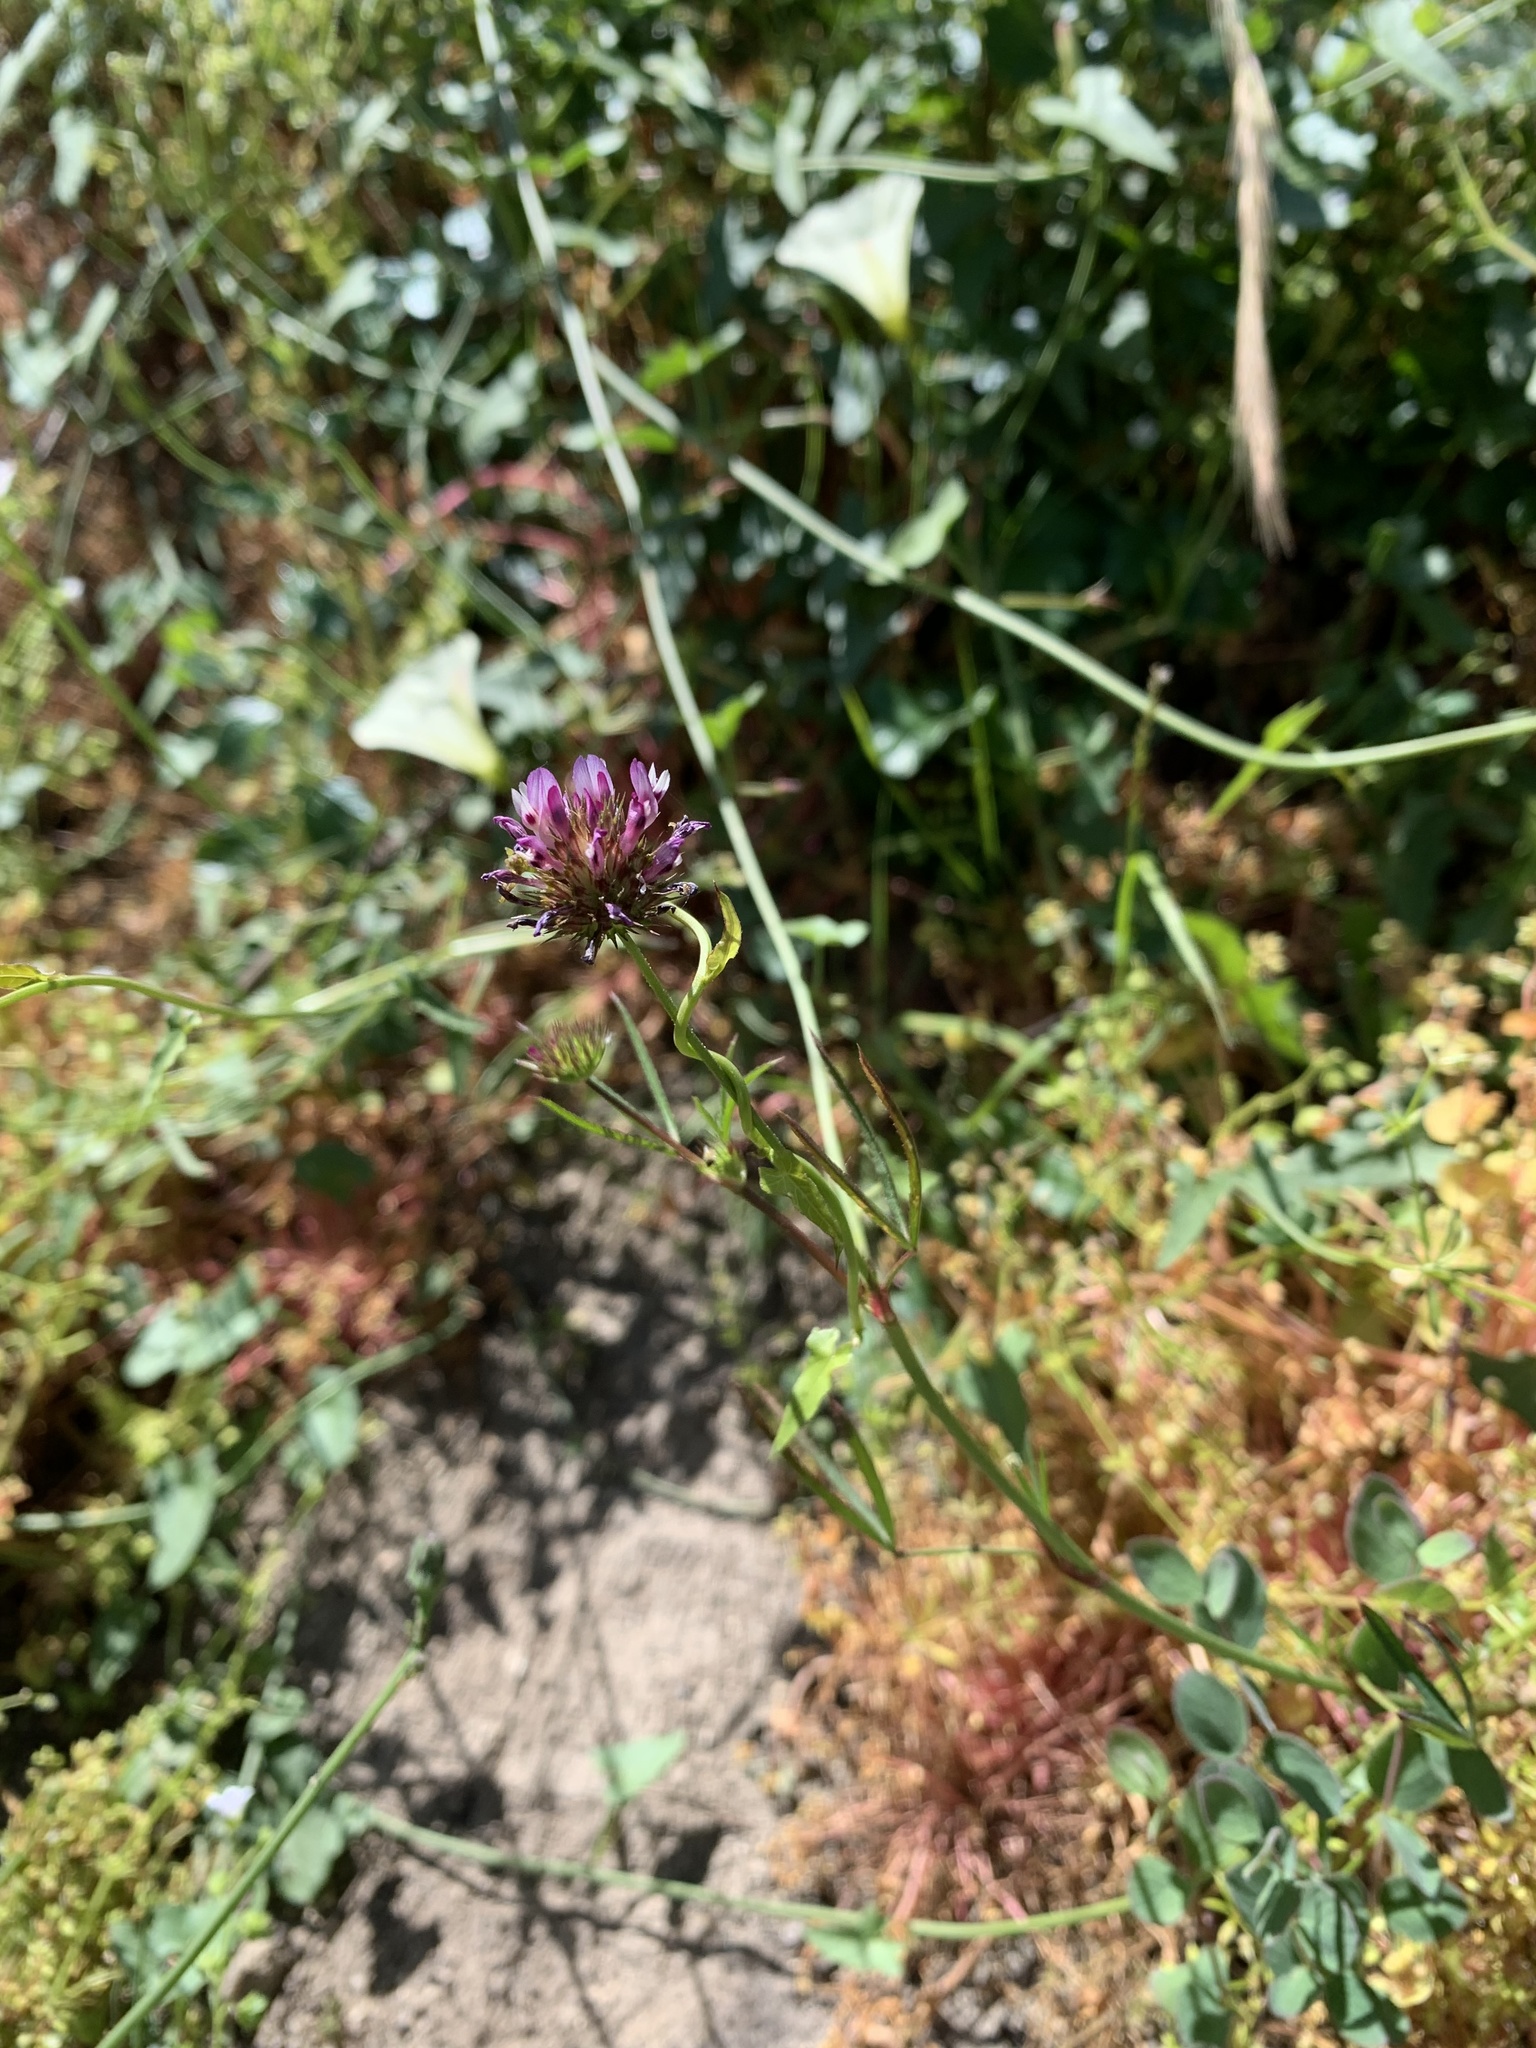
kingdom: Plantae
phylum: Tracheophyta
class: Magnoliopsida
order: Fabales
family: Fabaceae
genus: Trifolium
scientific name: Trifolium willdenovii
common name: Tomcat clover
